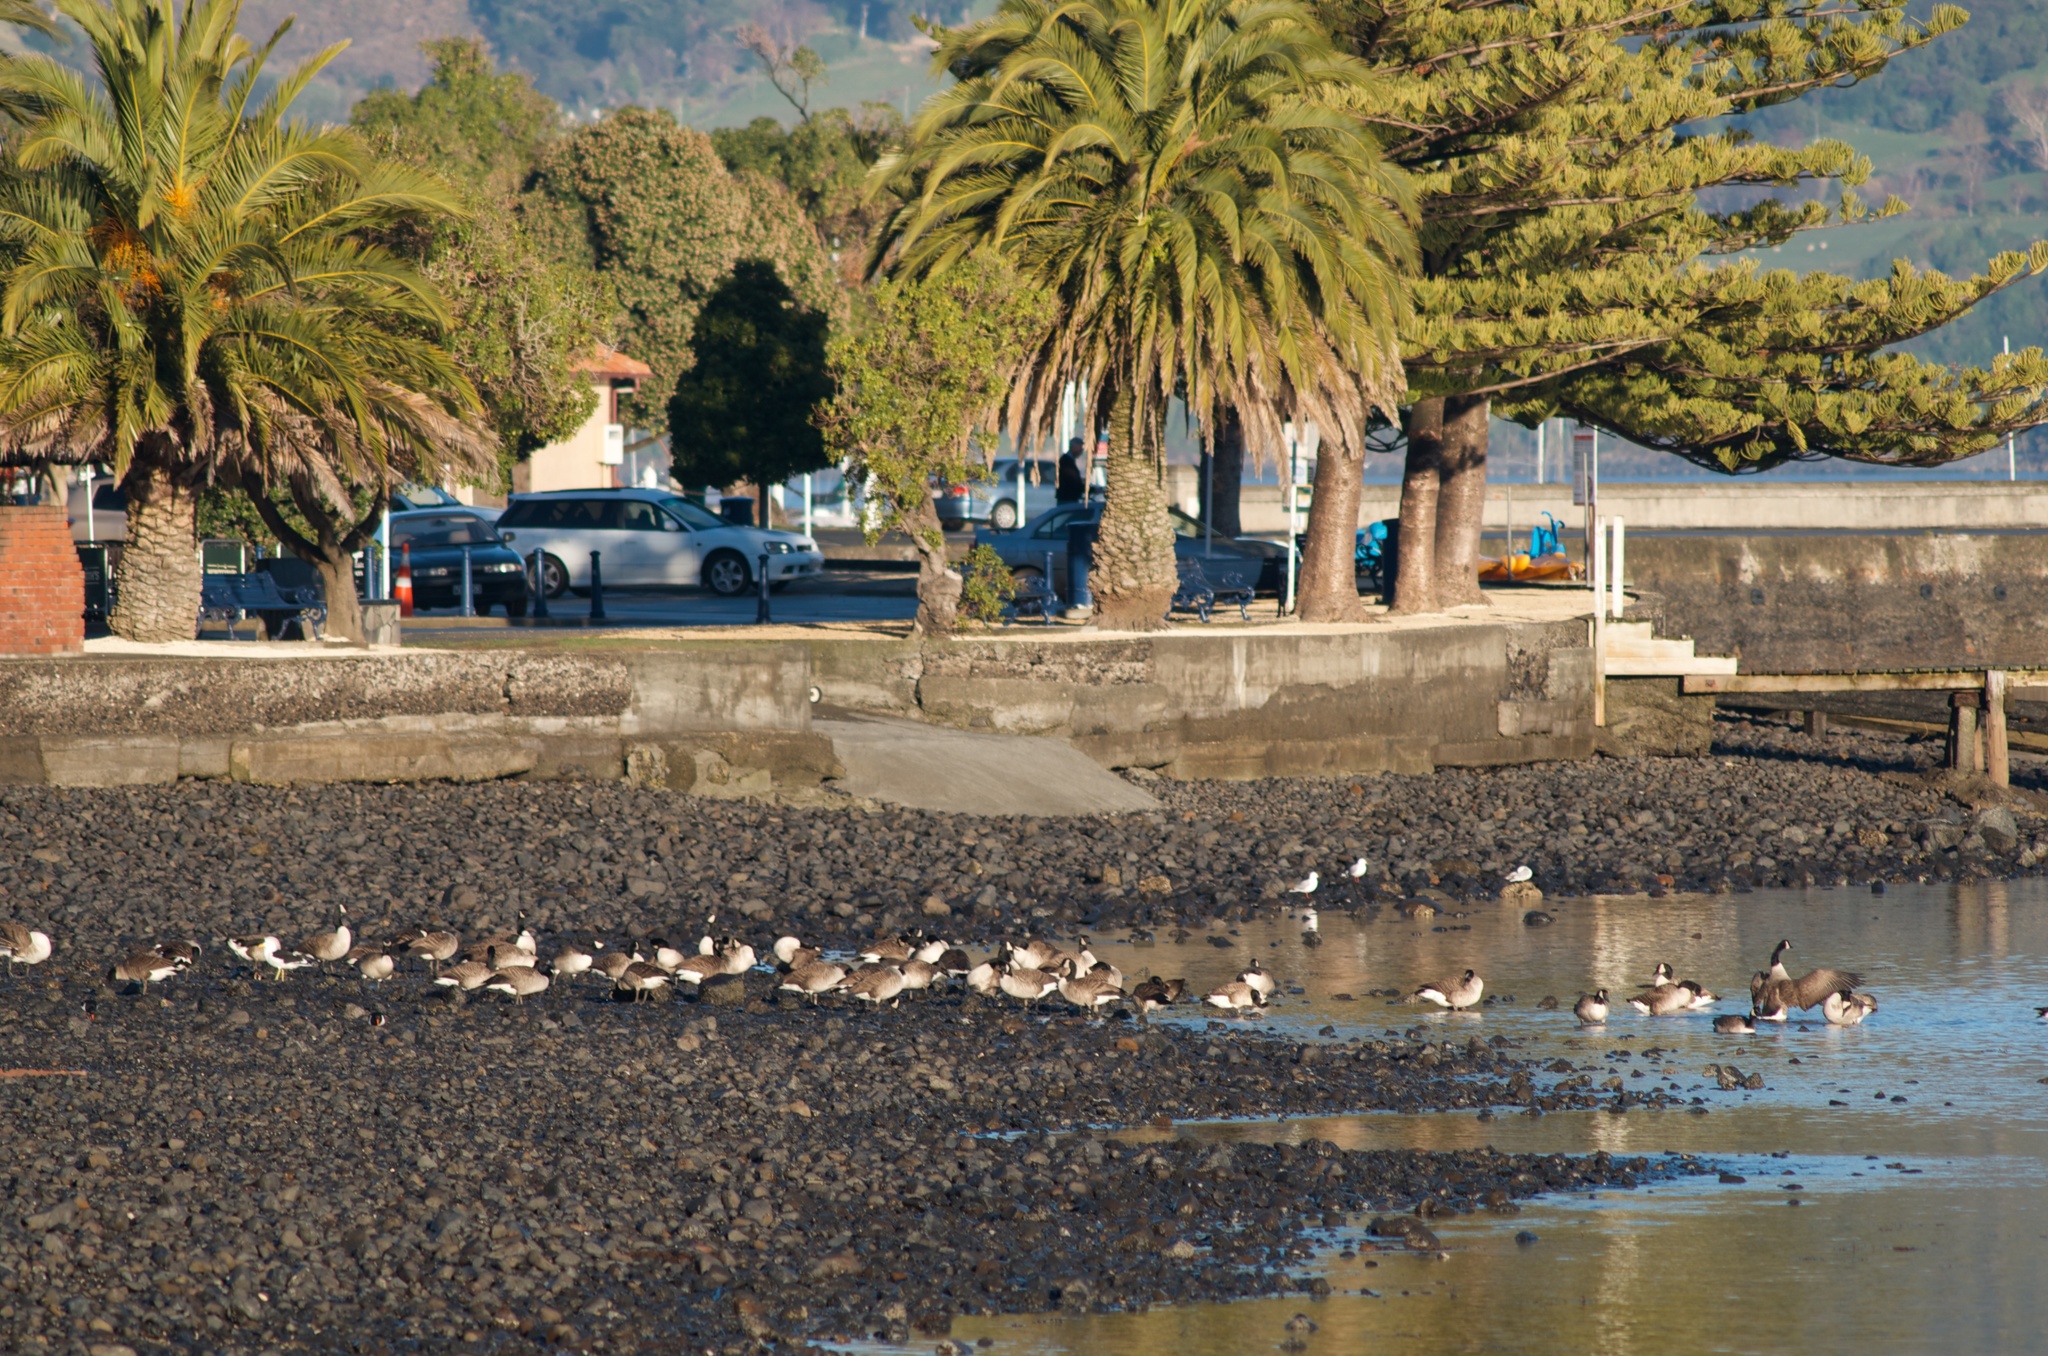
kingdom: Animalia
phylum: Chordata
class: Aves
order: Anseriformes
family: Anatidae
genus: Branta
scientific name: Branta canadensis
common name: Canada goose
